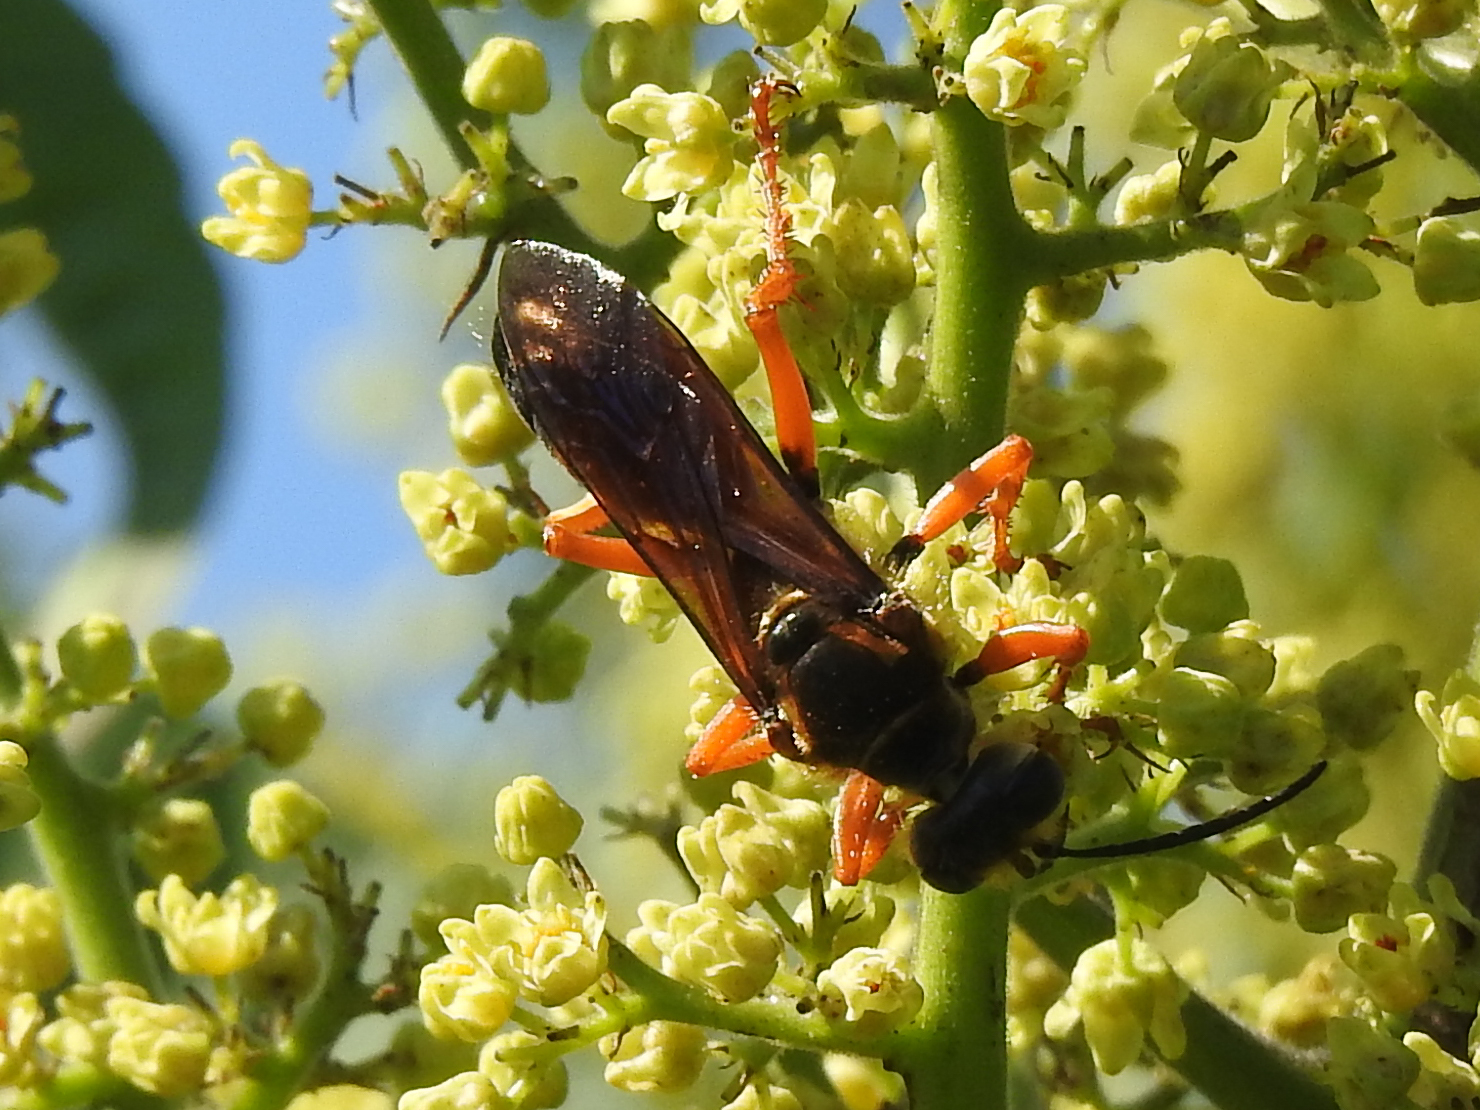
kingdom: Animalia
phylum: Arthropoda
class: Insecta
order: Hymenoptera
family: Sphecidae
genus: Sphex
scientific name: Sphex ichneumoneus
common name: Great golden digger wasp
